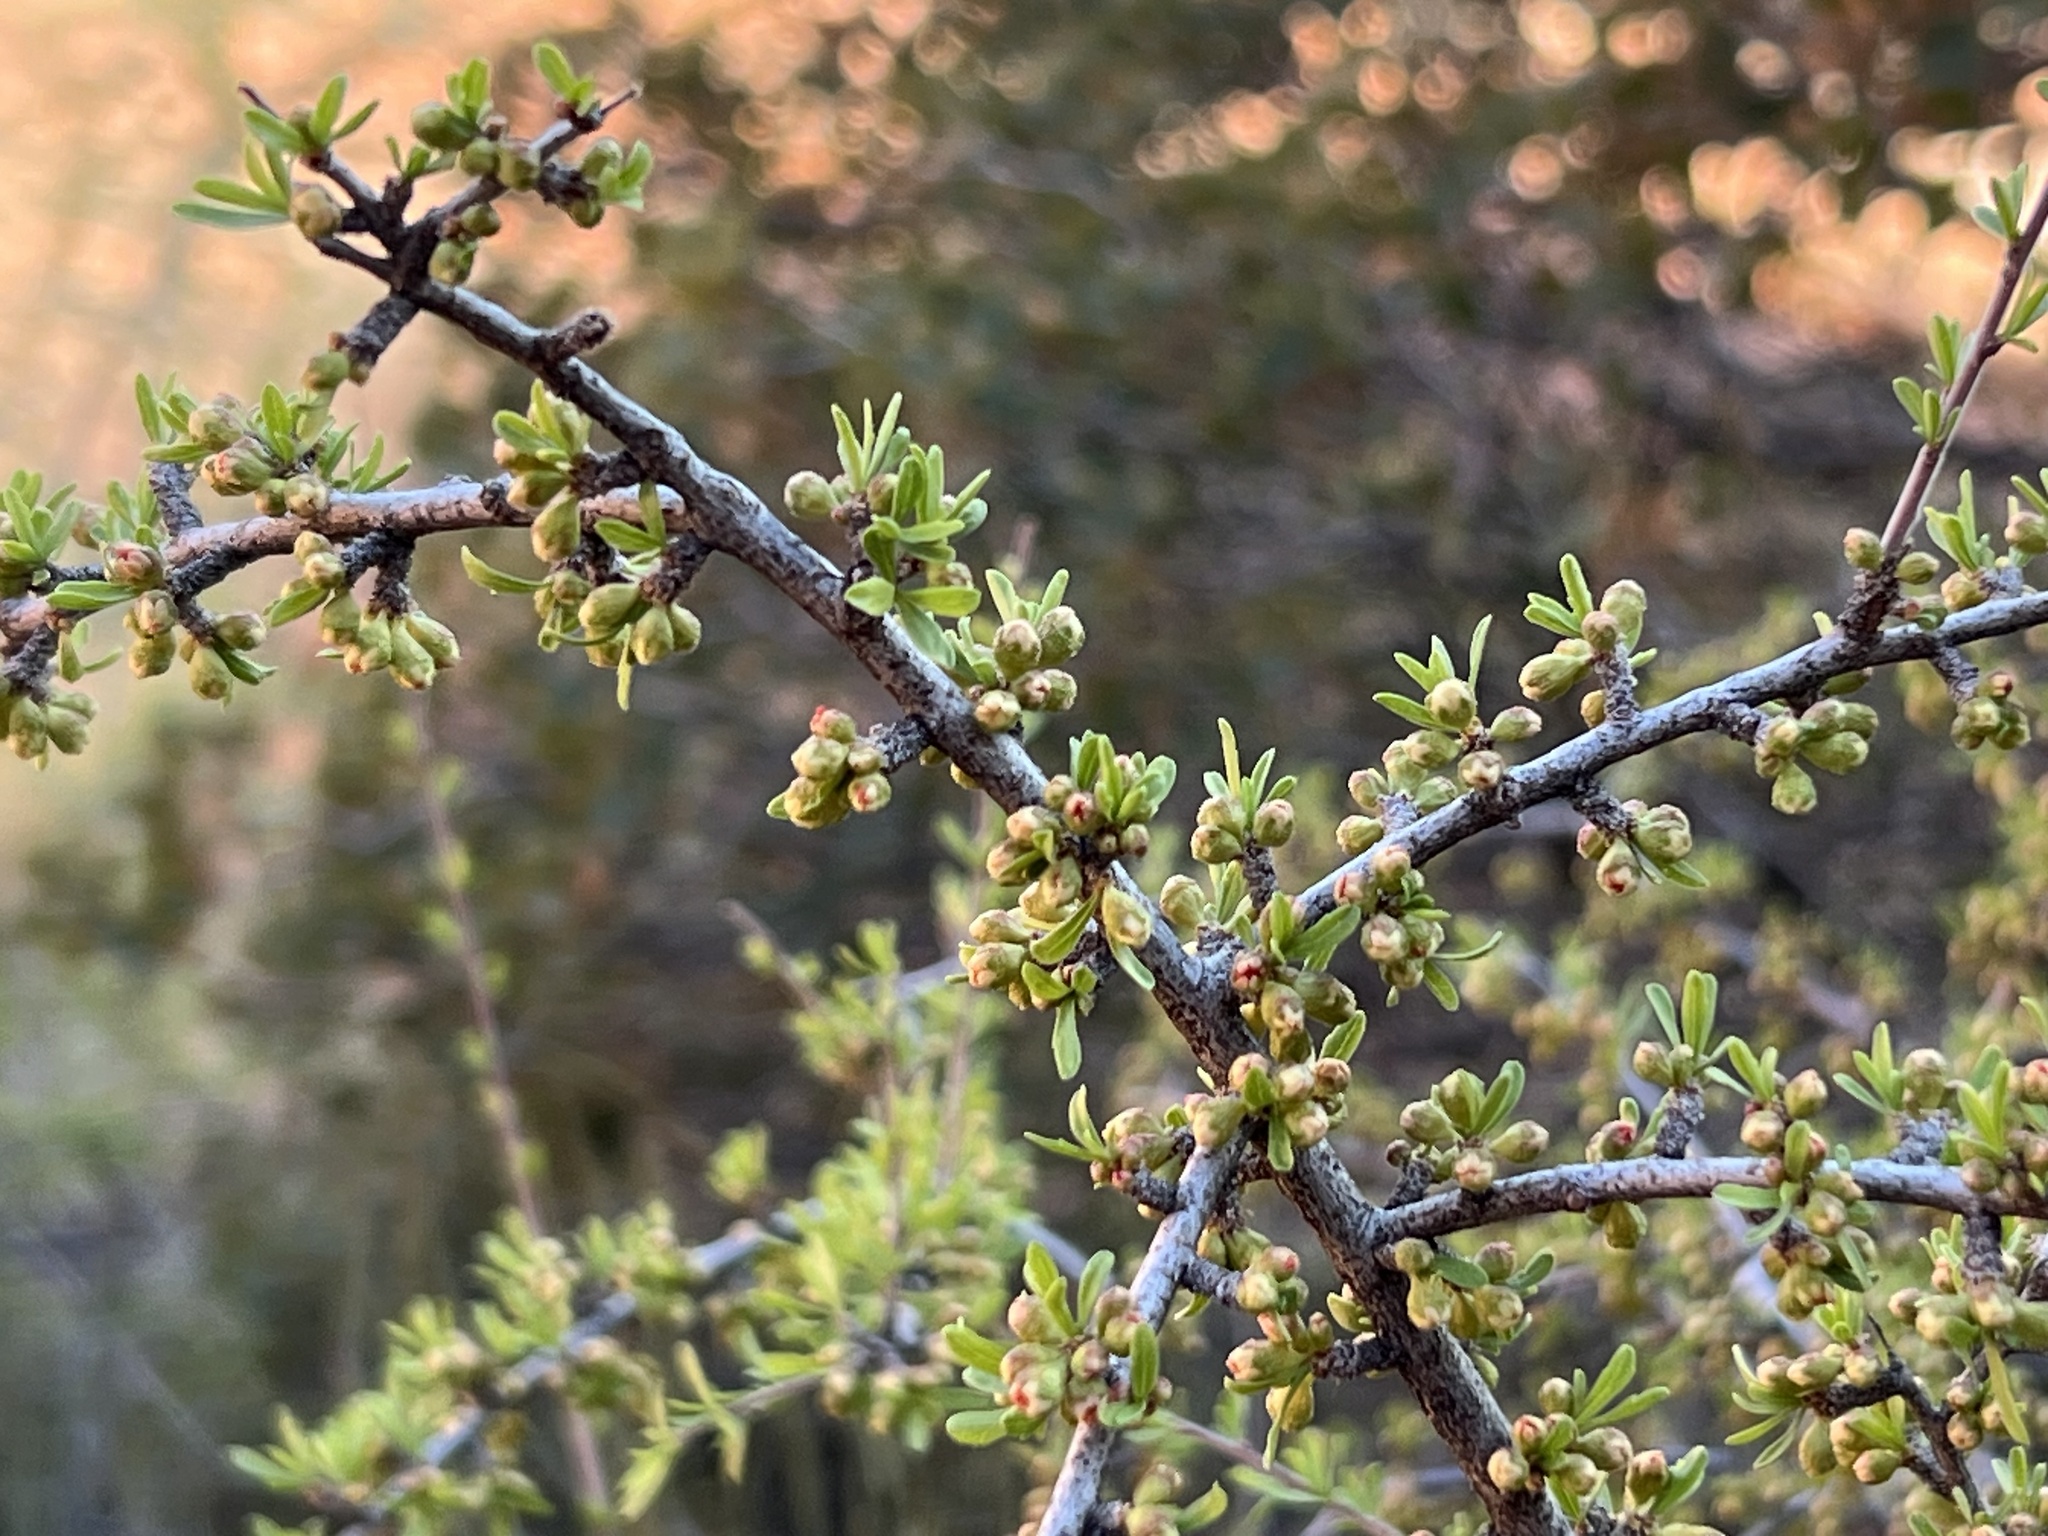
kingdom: Plantae
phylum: Tracheophyta
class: Magnoliopsida
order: Rosales
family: Rosaceae
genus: Prunus
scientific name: Prunus fasciculata
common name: Desert almond
